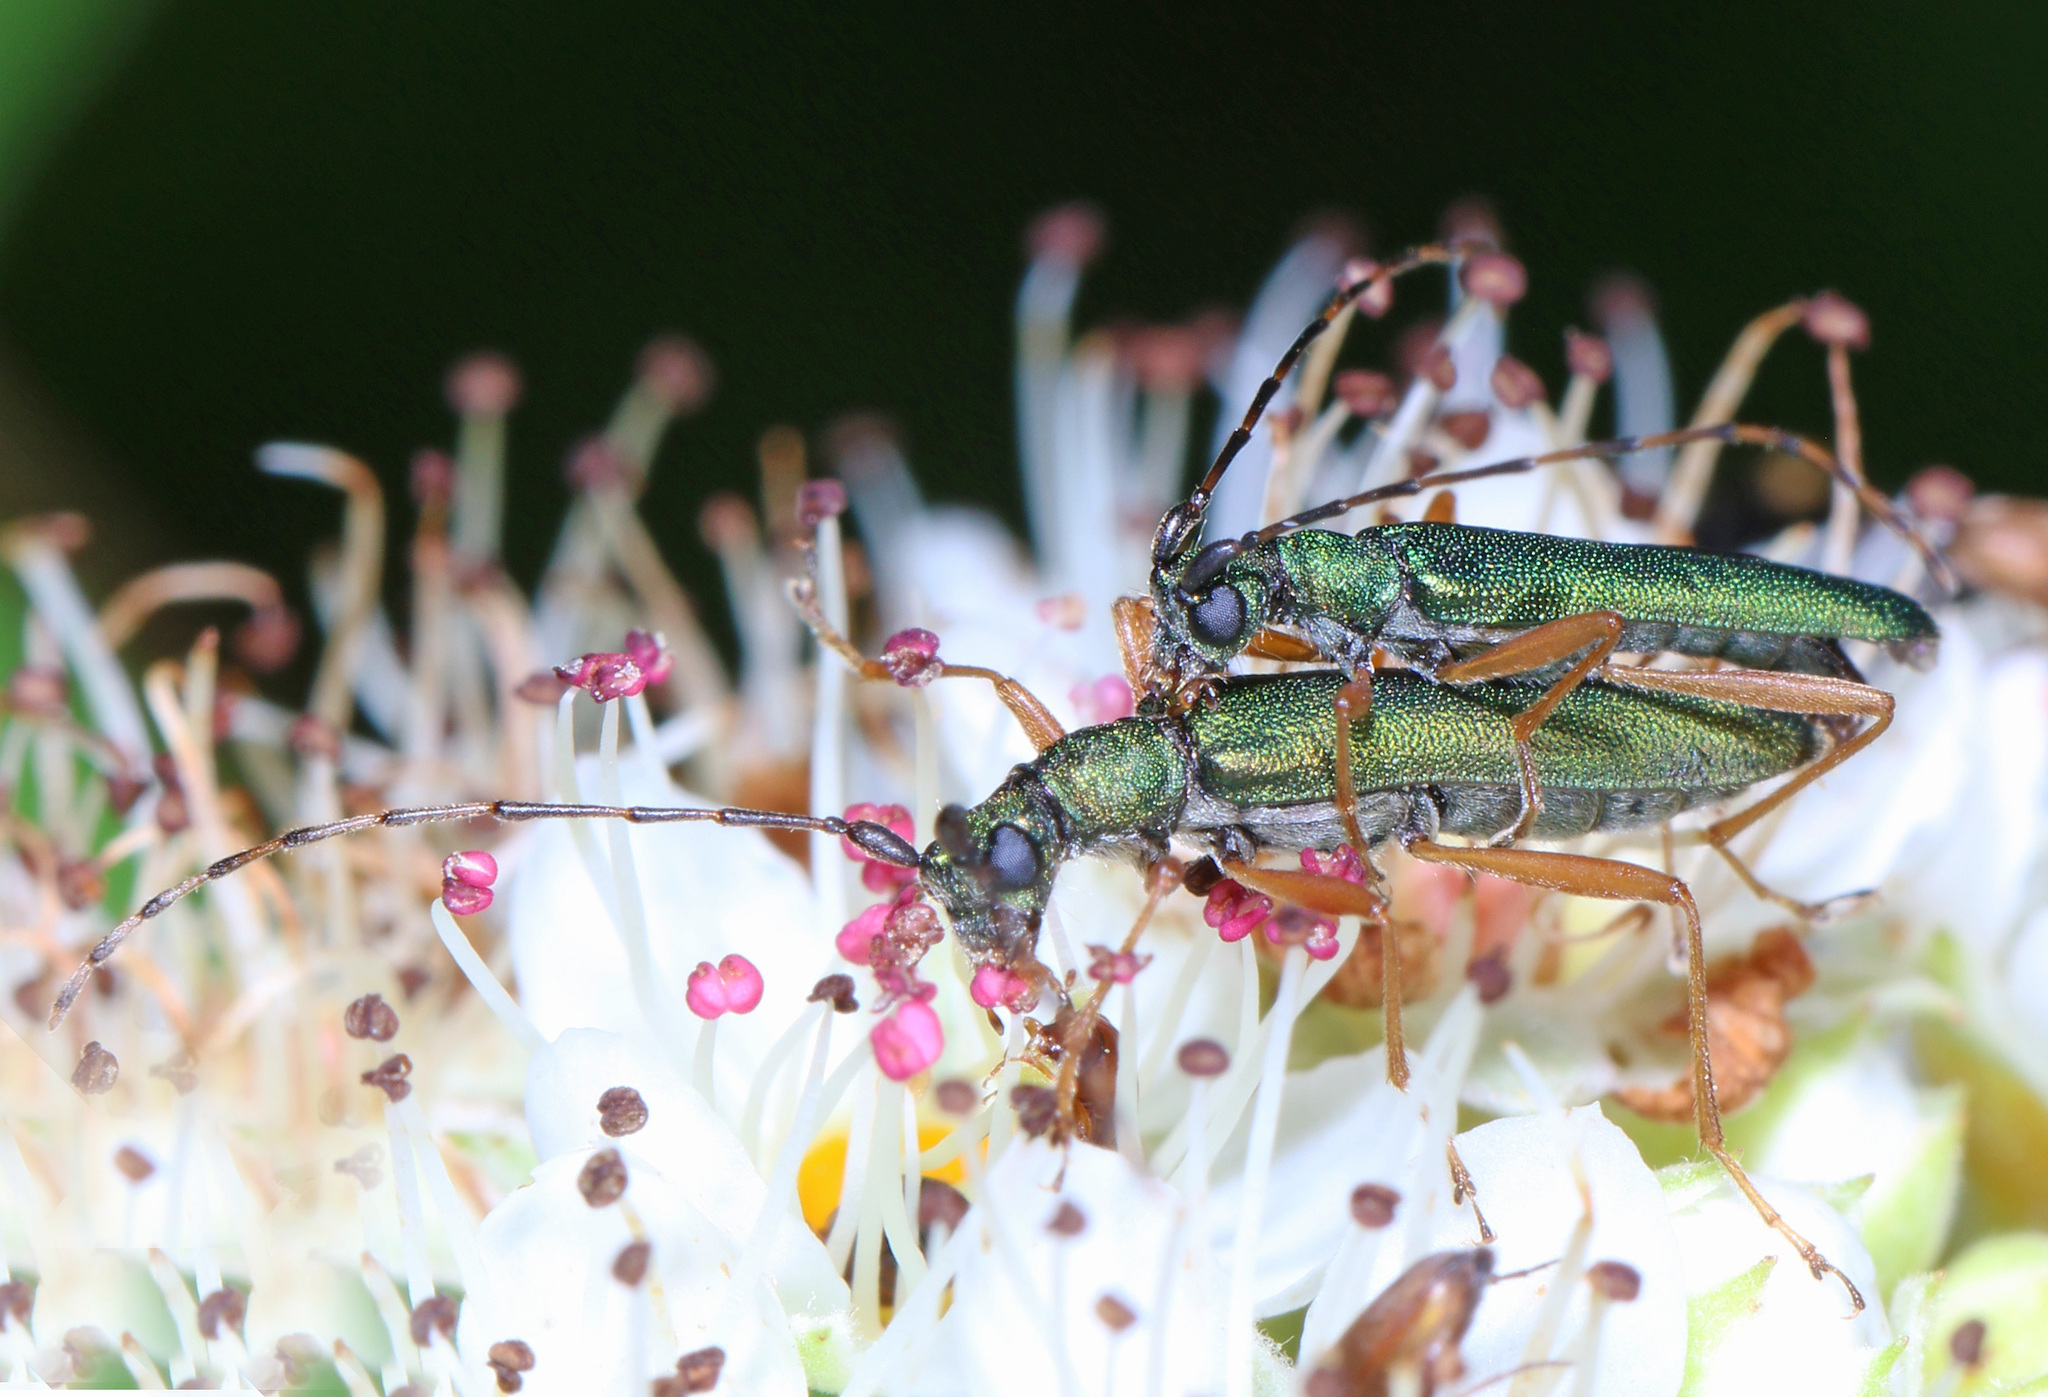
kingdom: Animalia
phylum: Arthropoda
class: Insecta
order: Coleoptera
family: Cerambycidae
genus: Encyclops
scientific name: Encyclops caerulea
